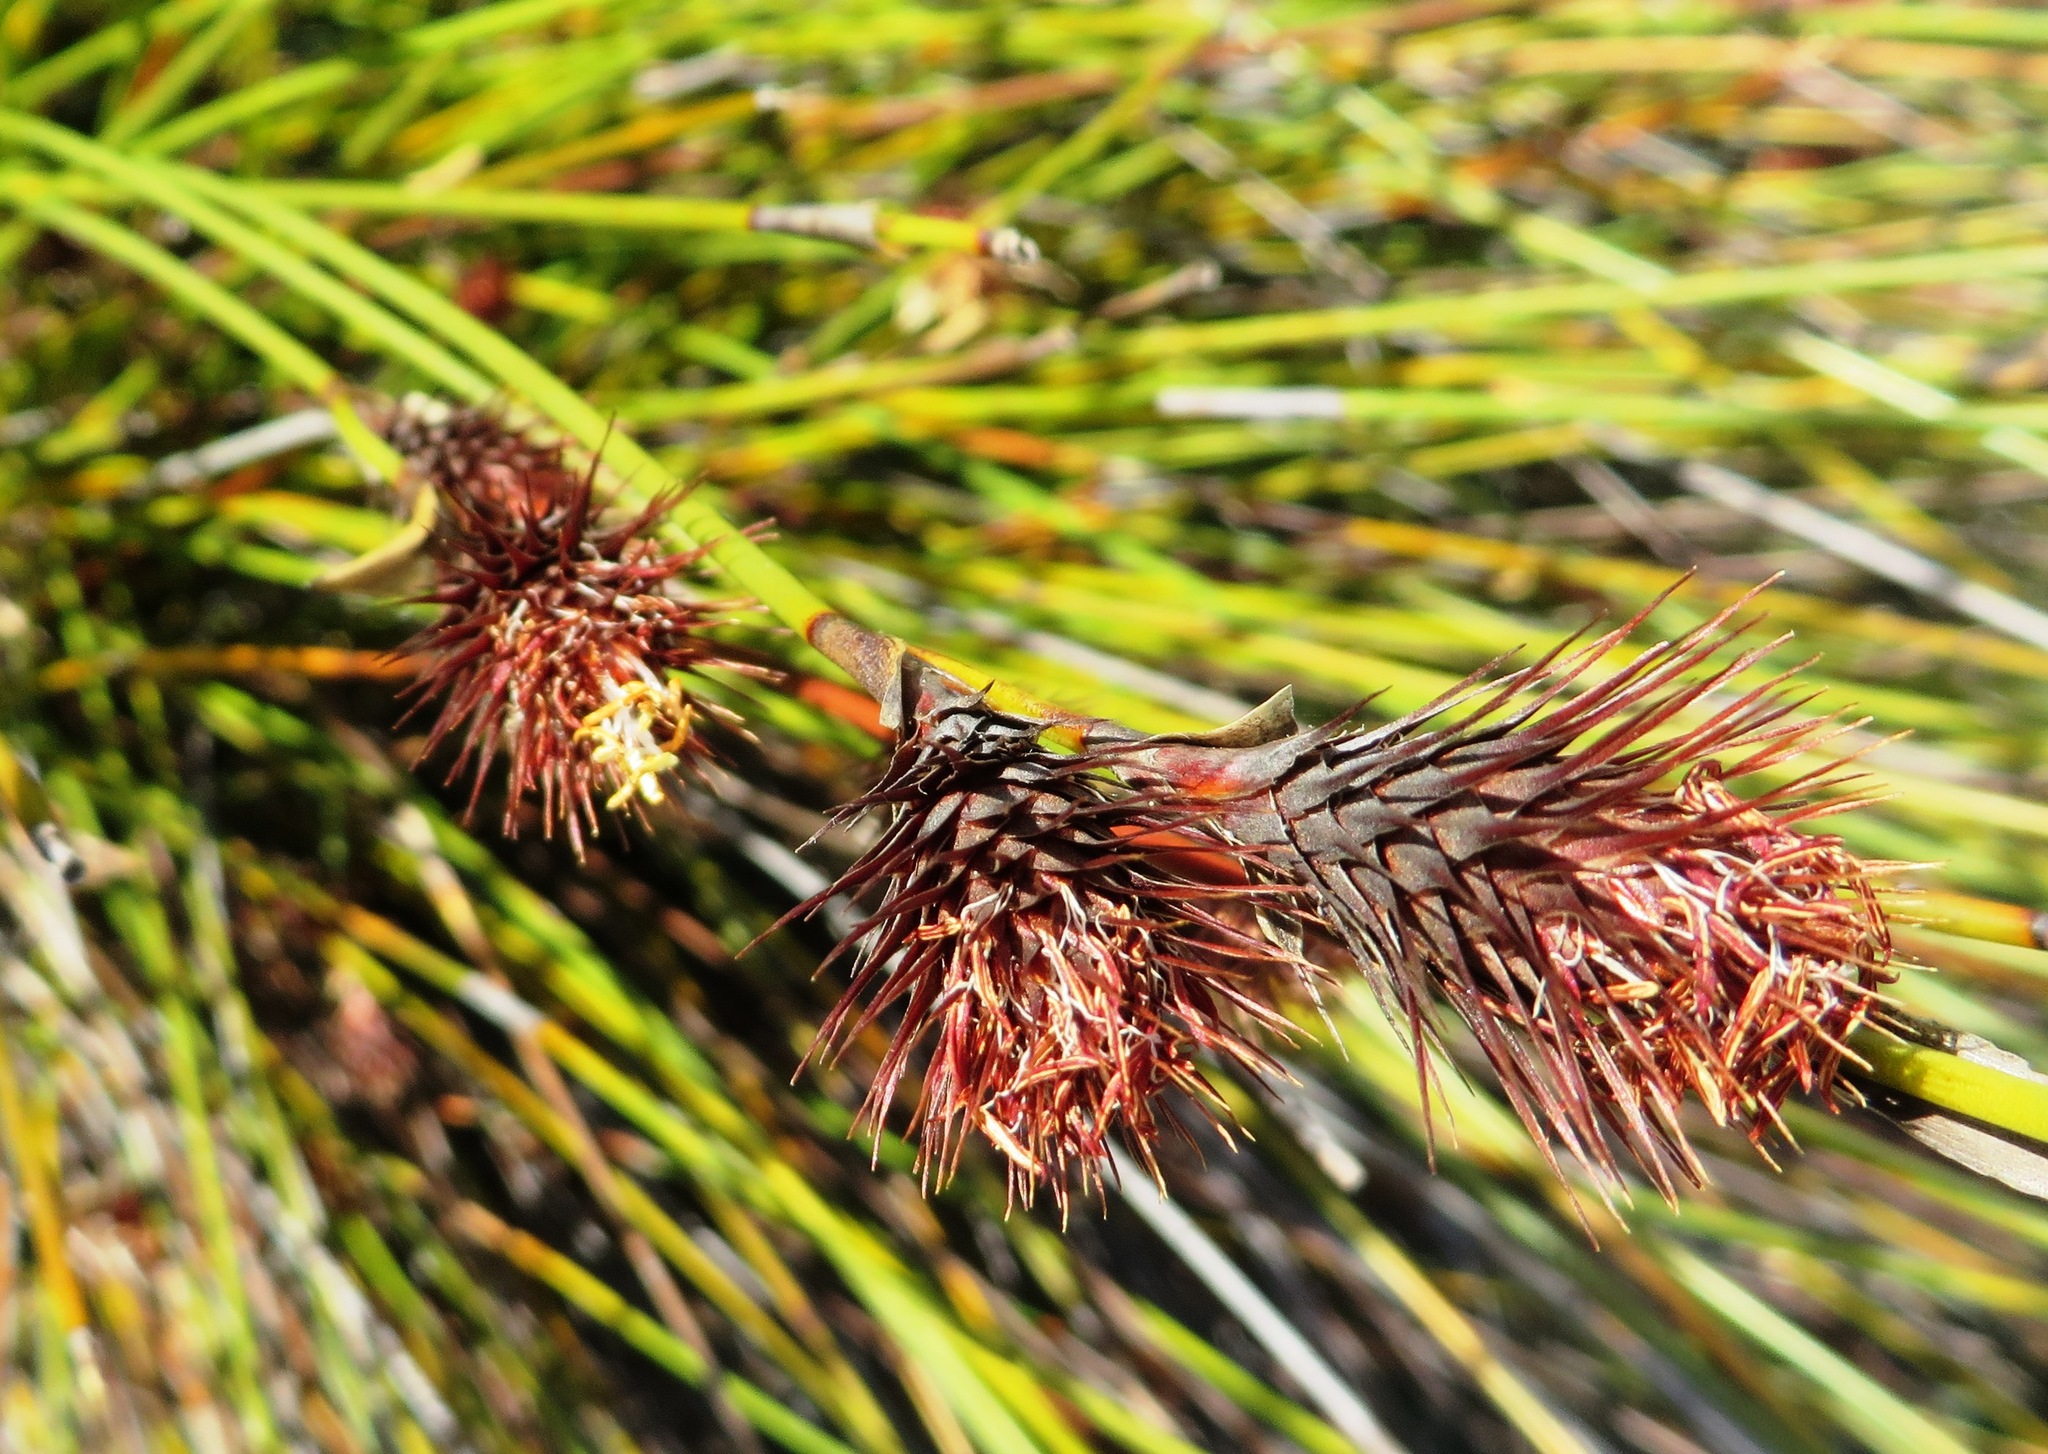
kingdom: Plantae
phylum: Tracheophyta
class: Liliopsida
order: Poales
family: Restionaceae
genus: Hypodiscus
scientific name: Hypodiscus aristatus
